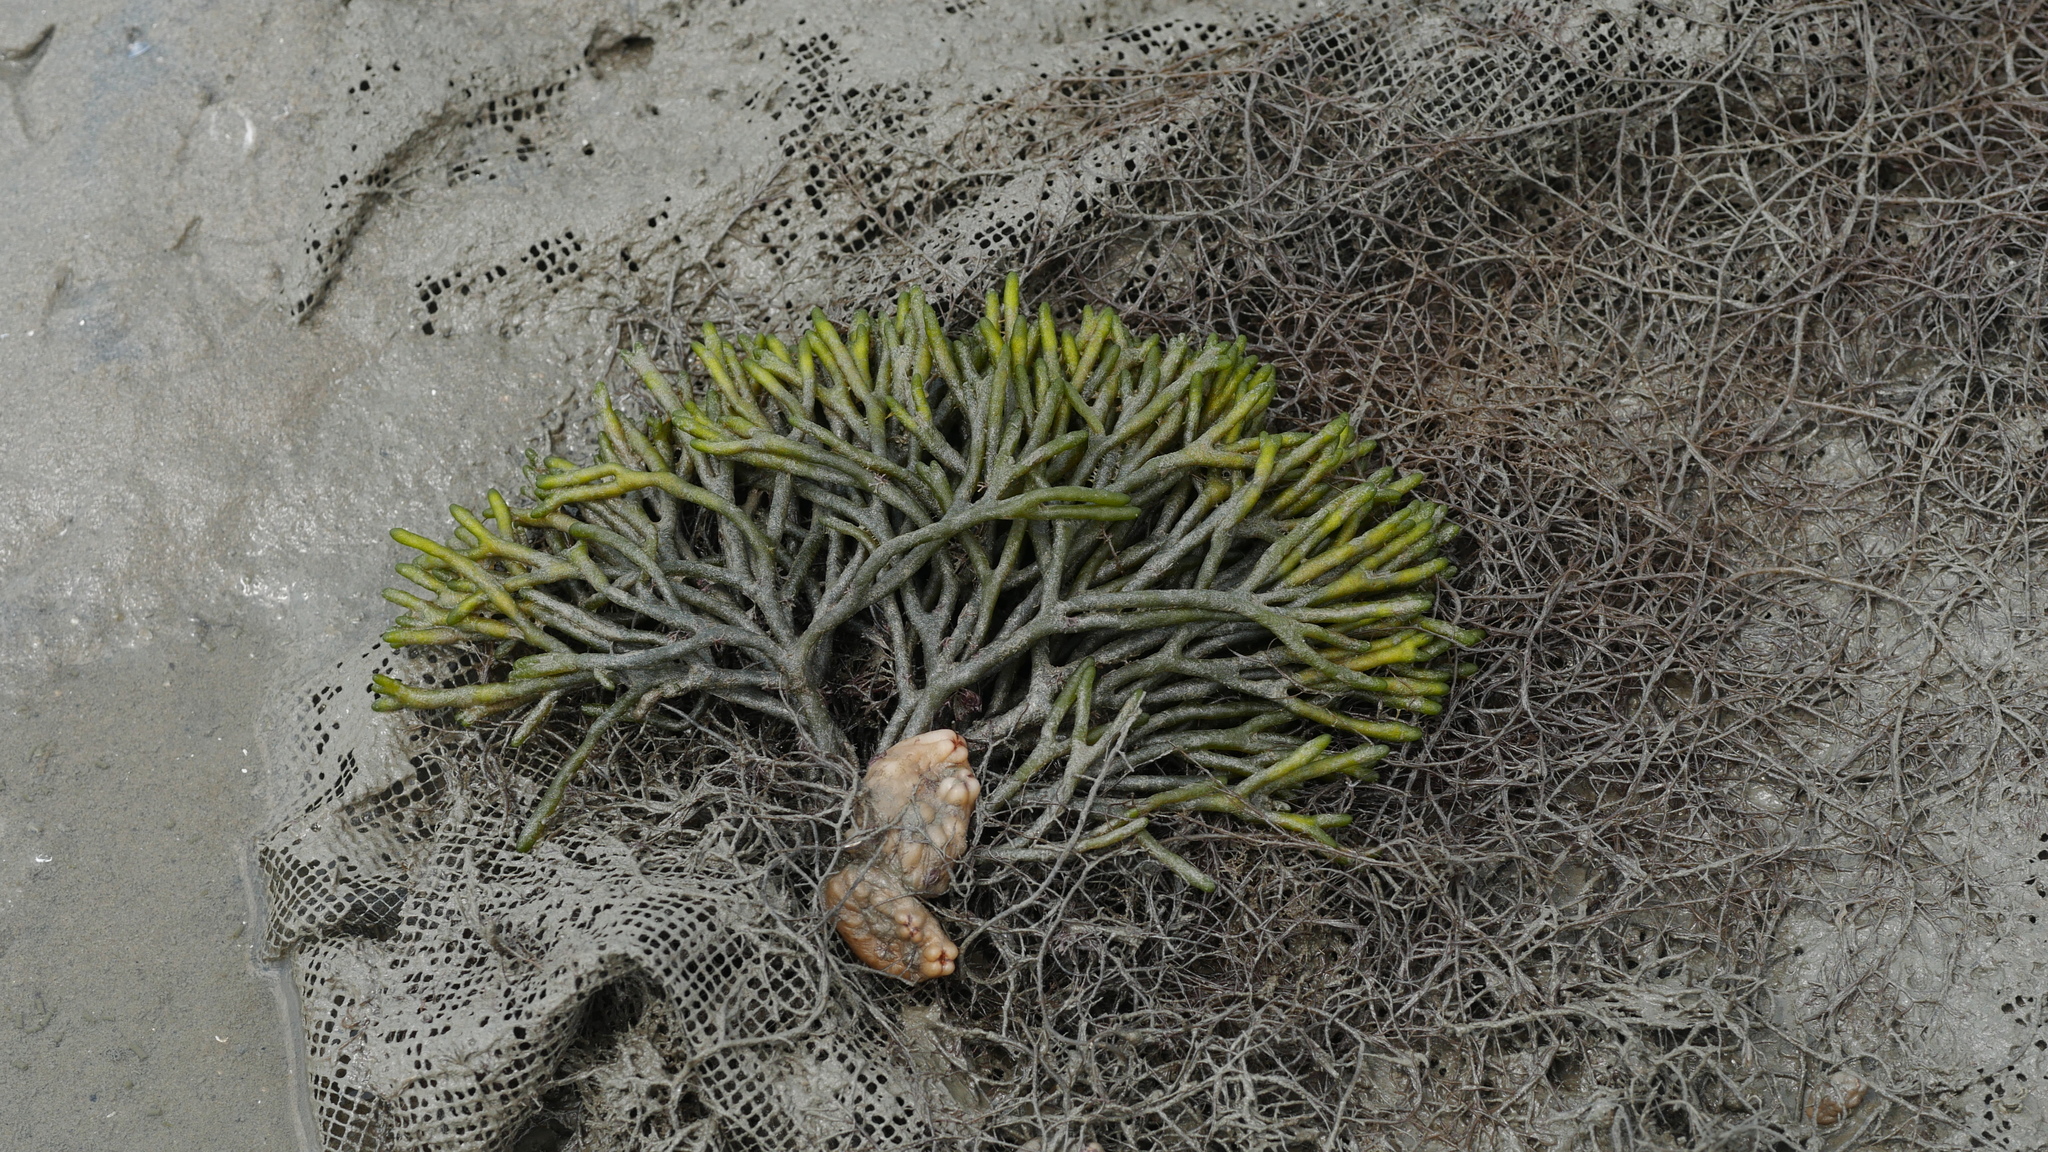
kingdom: Plantae
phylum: Chlorophyta
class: Ulvophyceae
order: Bryopsidales
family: Codiaceae
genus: Codium
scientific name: Codium fragile
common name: Dead man's fingers
